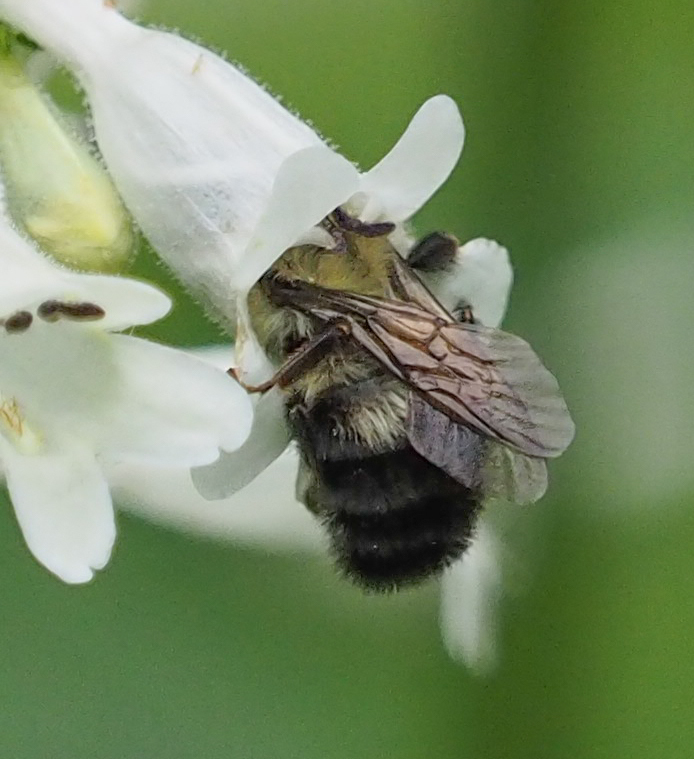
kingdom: Animalia
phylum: Arthropoda
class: Insecta
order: Hymenoptera
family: Apidae
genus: Bombus
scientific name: Bombus bimaculatus
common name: Two-spotted bumble bee
